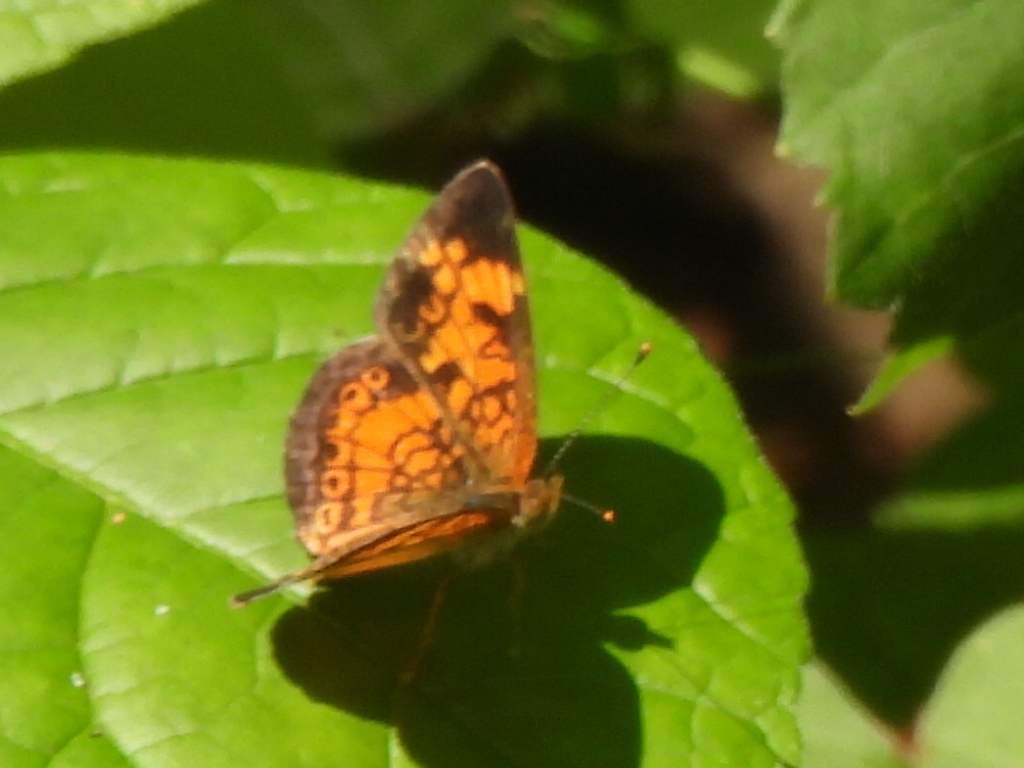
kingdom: Animalia
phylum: Arthropoda
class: Insecta
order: Lepidoptera
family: Nymphalidae
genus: Phyciodes
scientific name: Phyciodes tharos
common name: Pearl crescent
